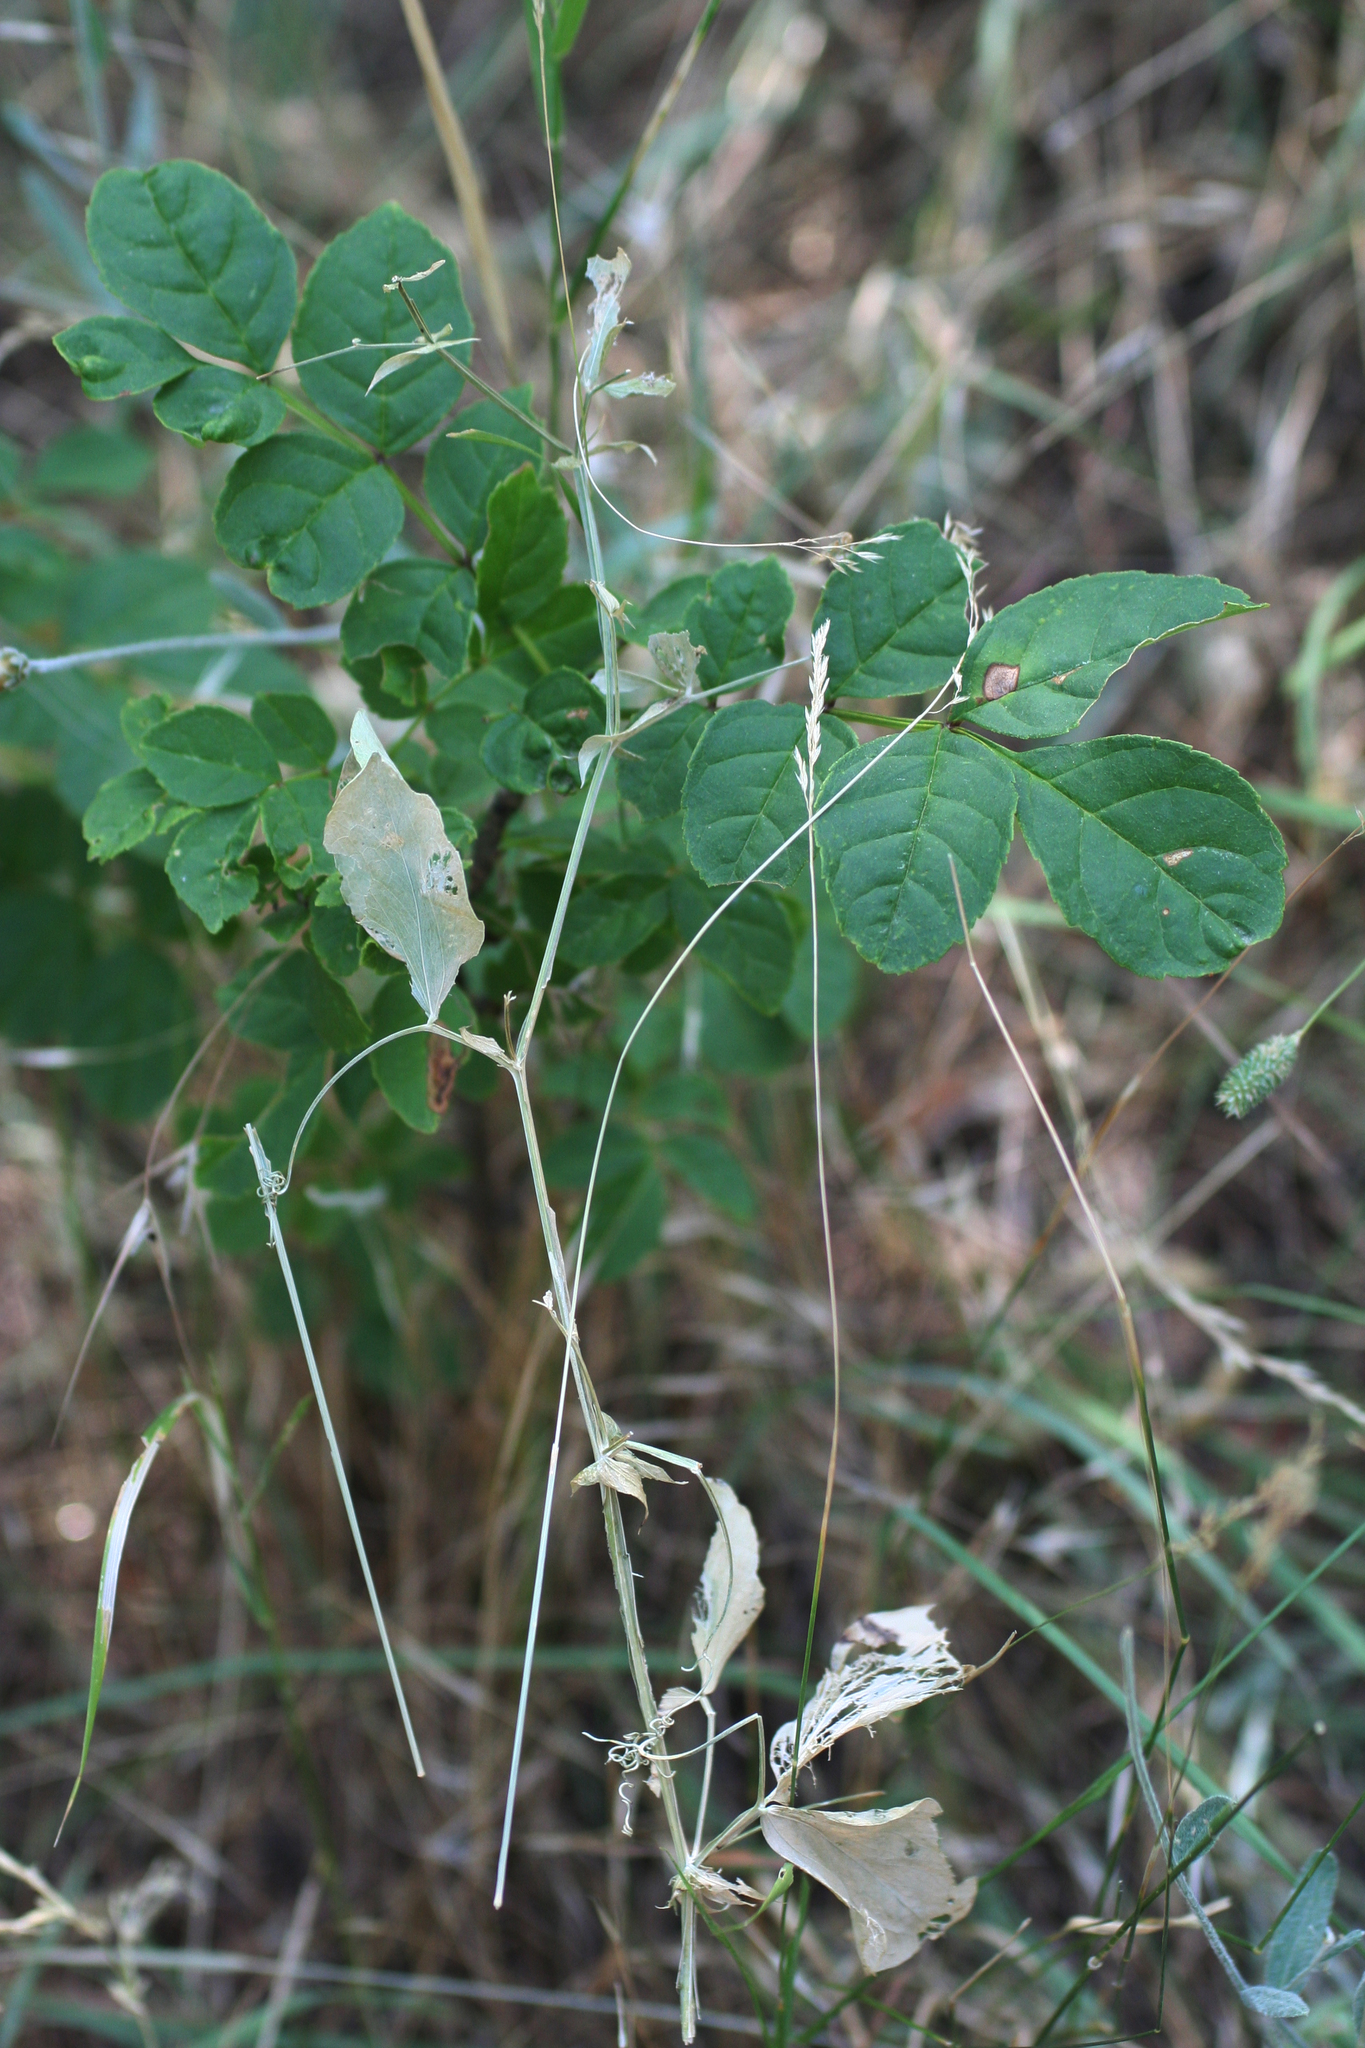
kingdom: Plantae
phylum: Tracheophyta
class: Magnoliopsida
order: Fabales
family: Fabaceae
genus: Lathyrus
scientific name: Lathyrus miniatus
